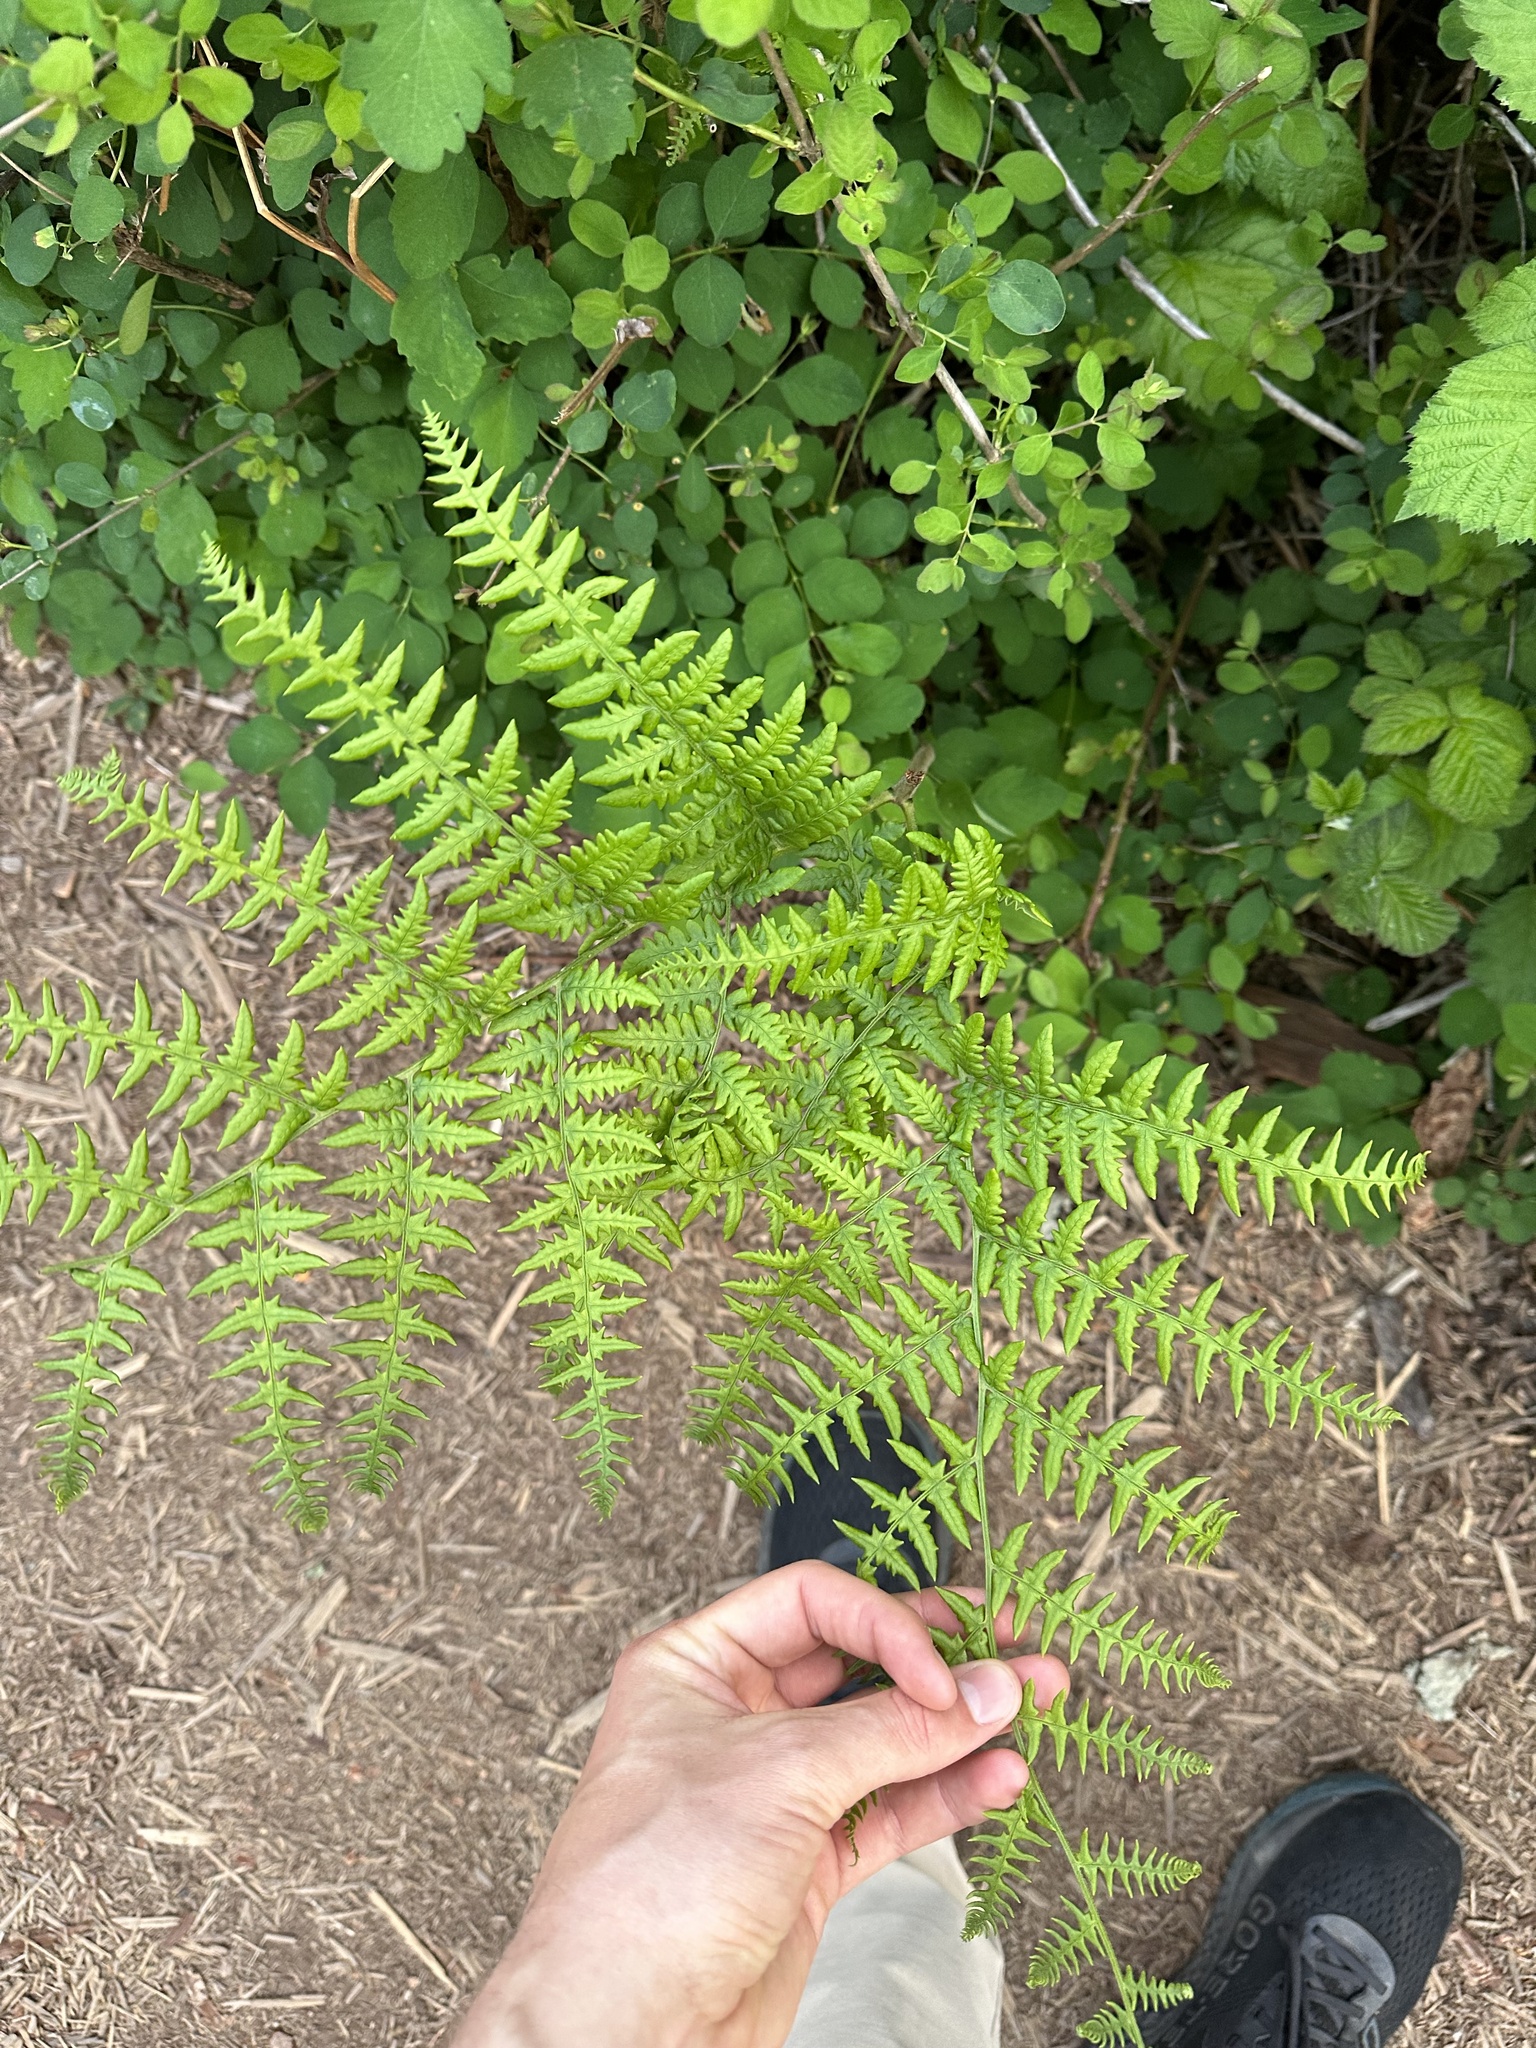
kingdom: Plantae
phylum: Tracheophyta
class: Polypodiopsida
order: Polypodiales
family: Dennstaedtiaceae
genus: Pteridium
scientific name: Pteridium aquilinum
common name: Bracken
